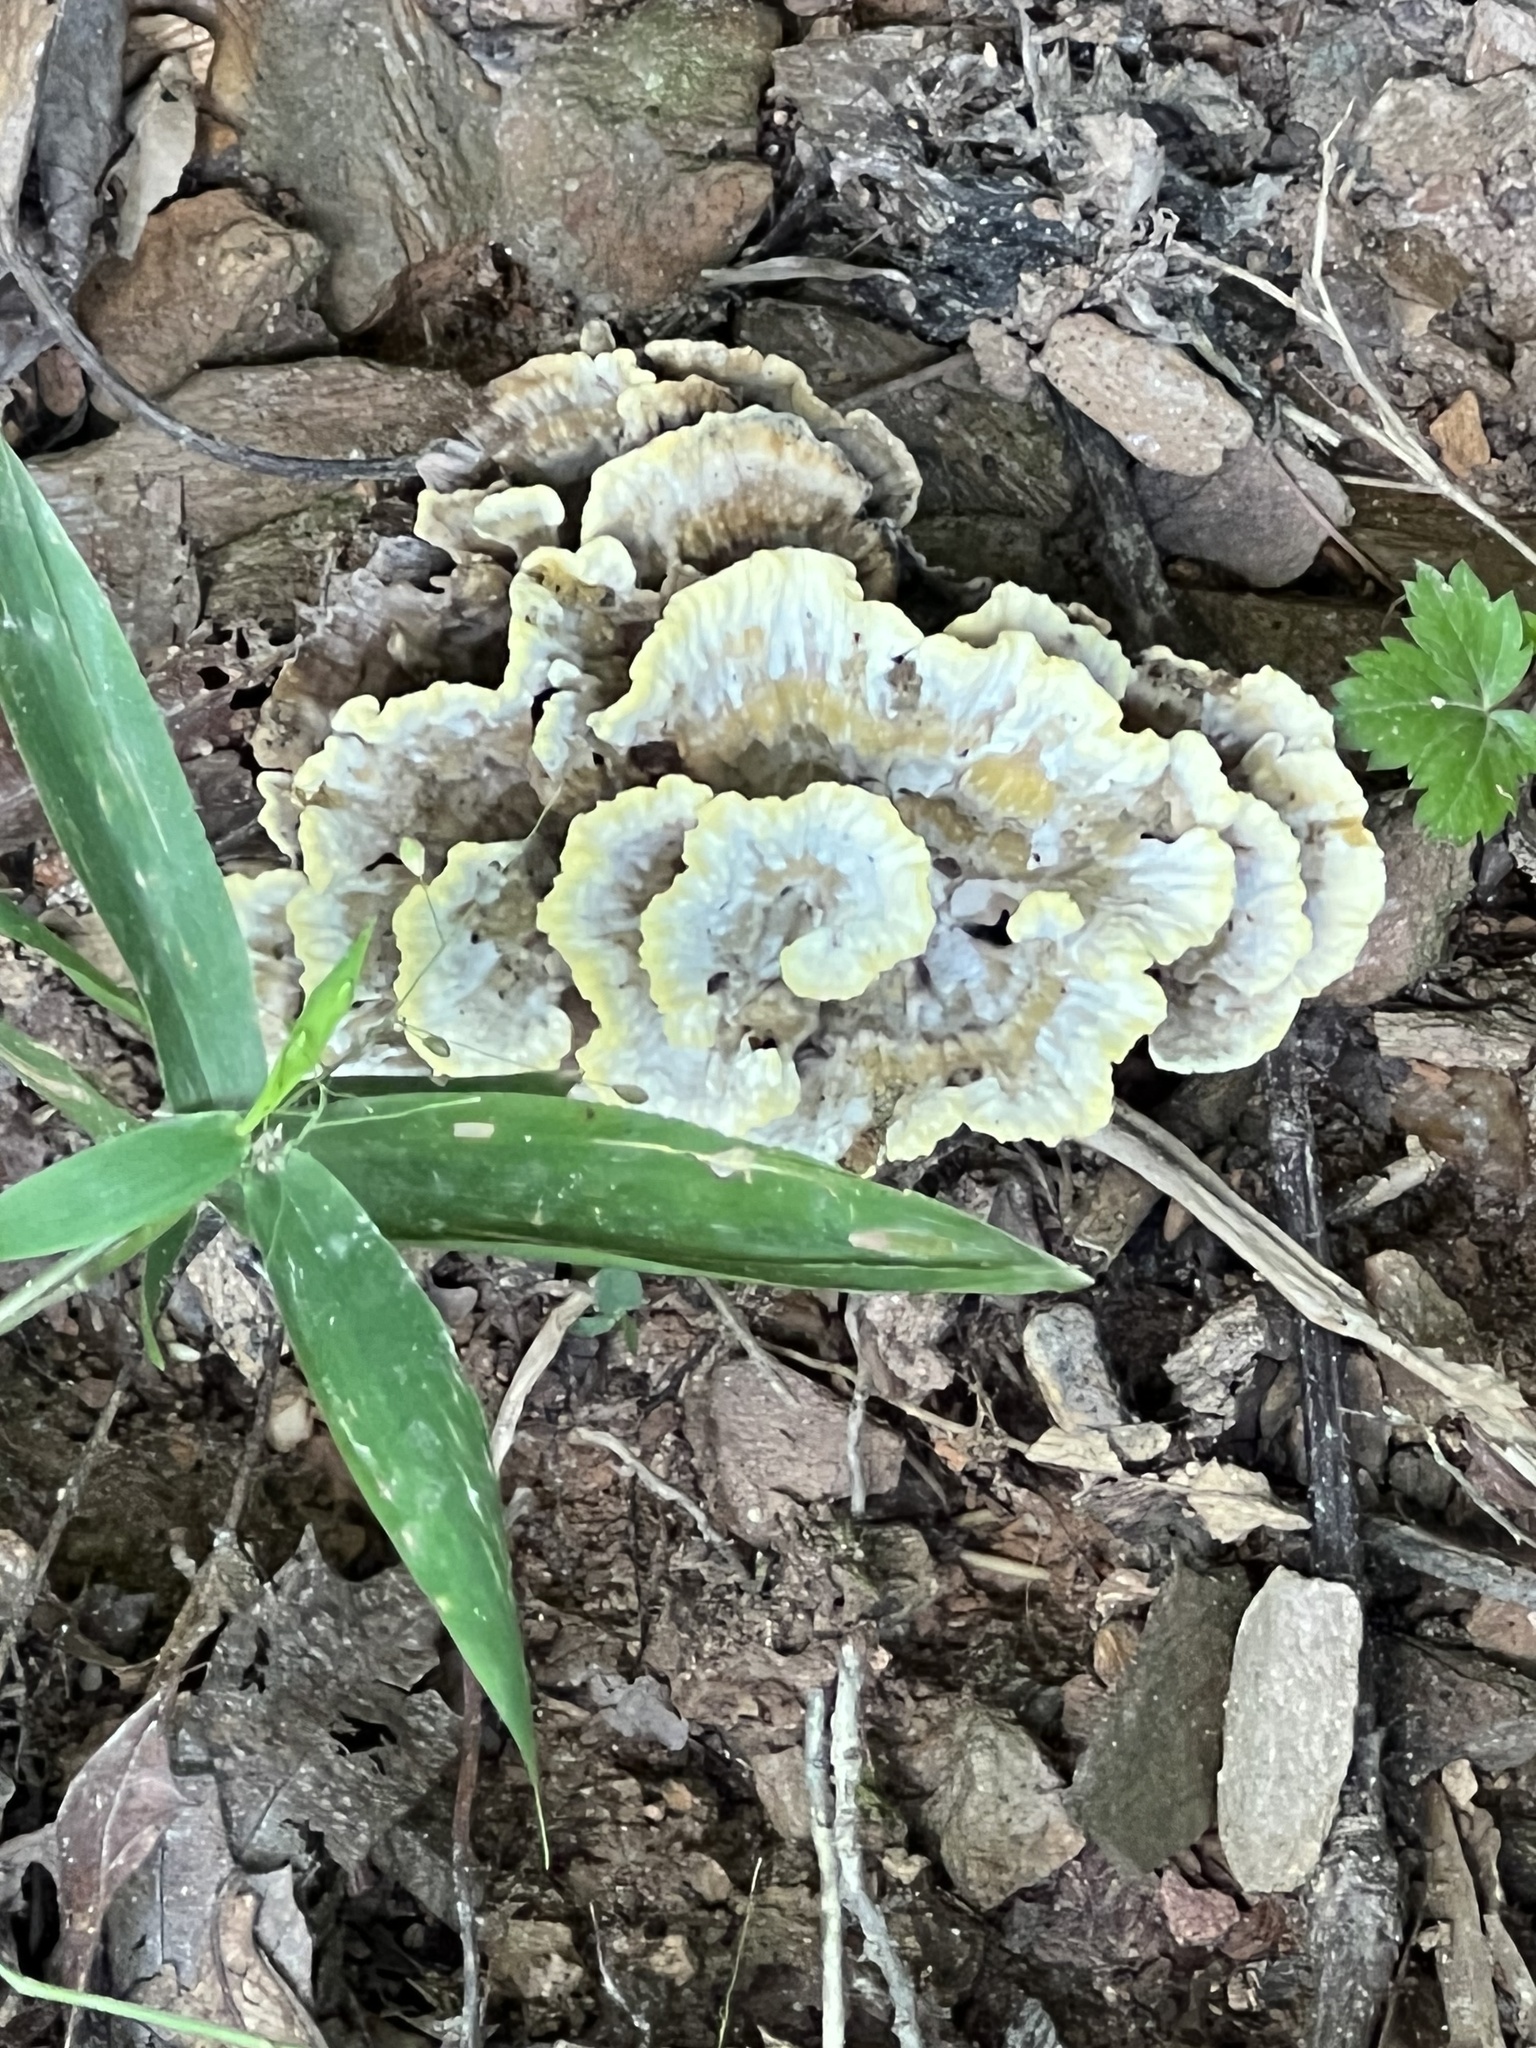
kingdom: Fungi
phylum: Basidiomycota
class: Agaricomycetes
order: Thelephorales
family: Thelephoraceae
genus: Thelephora
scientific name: Thelephora vialis
